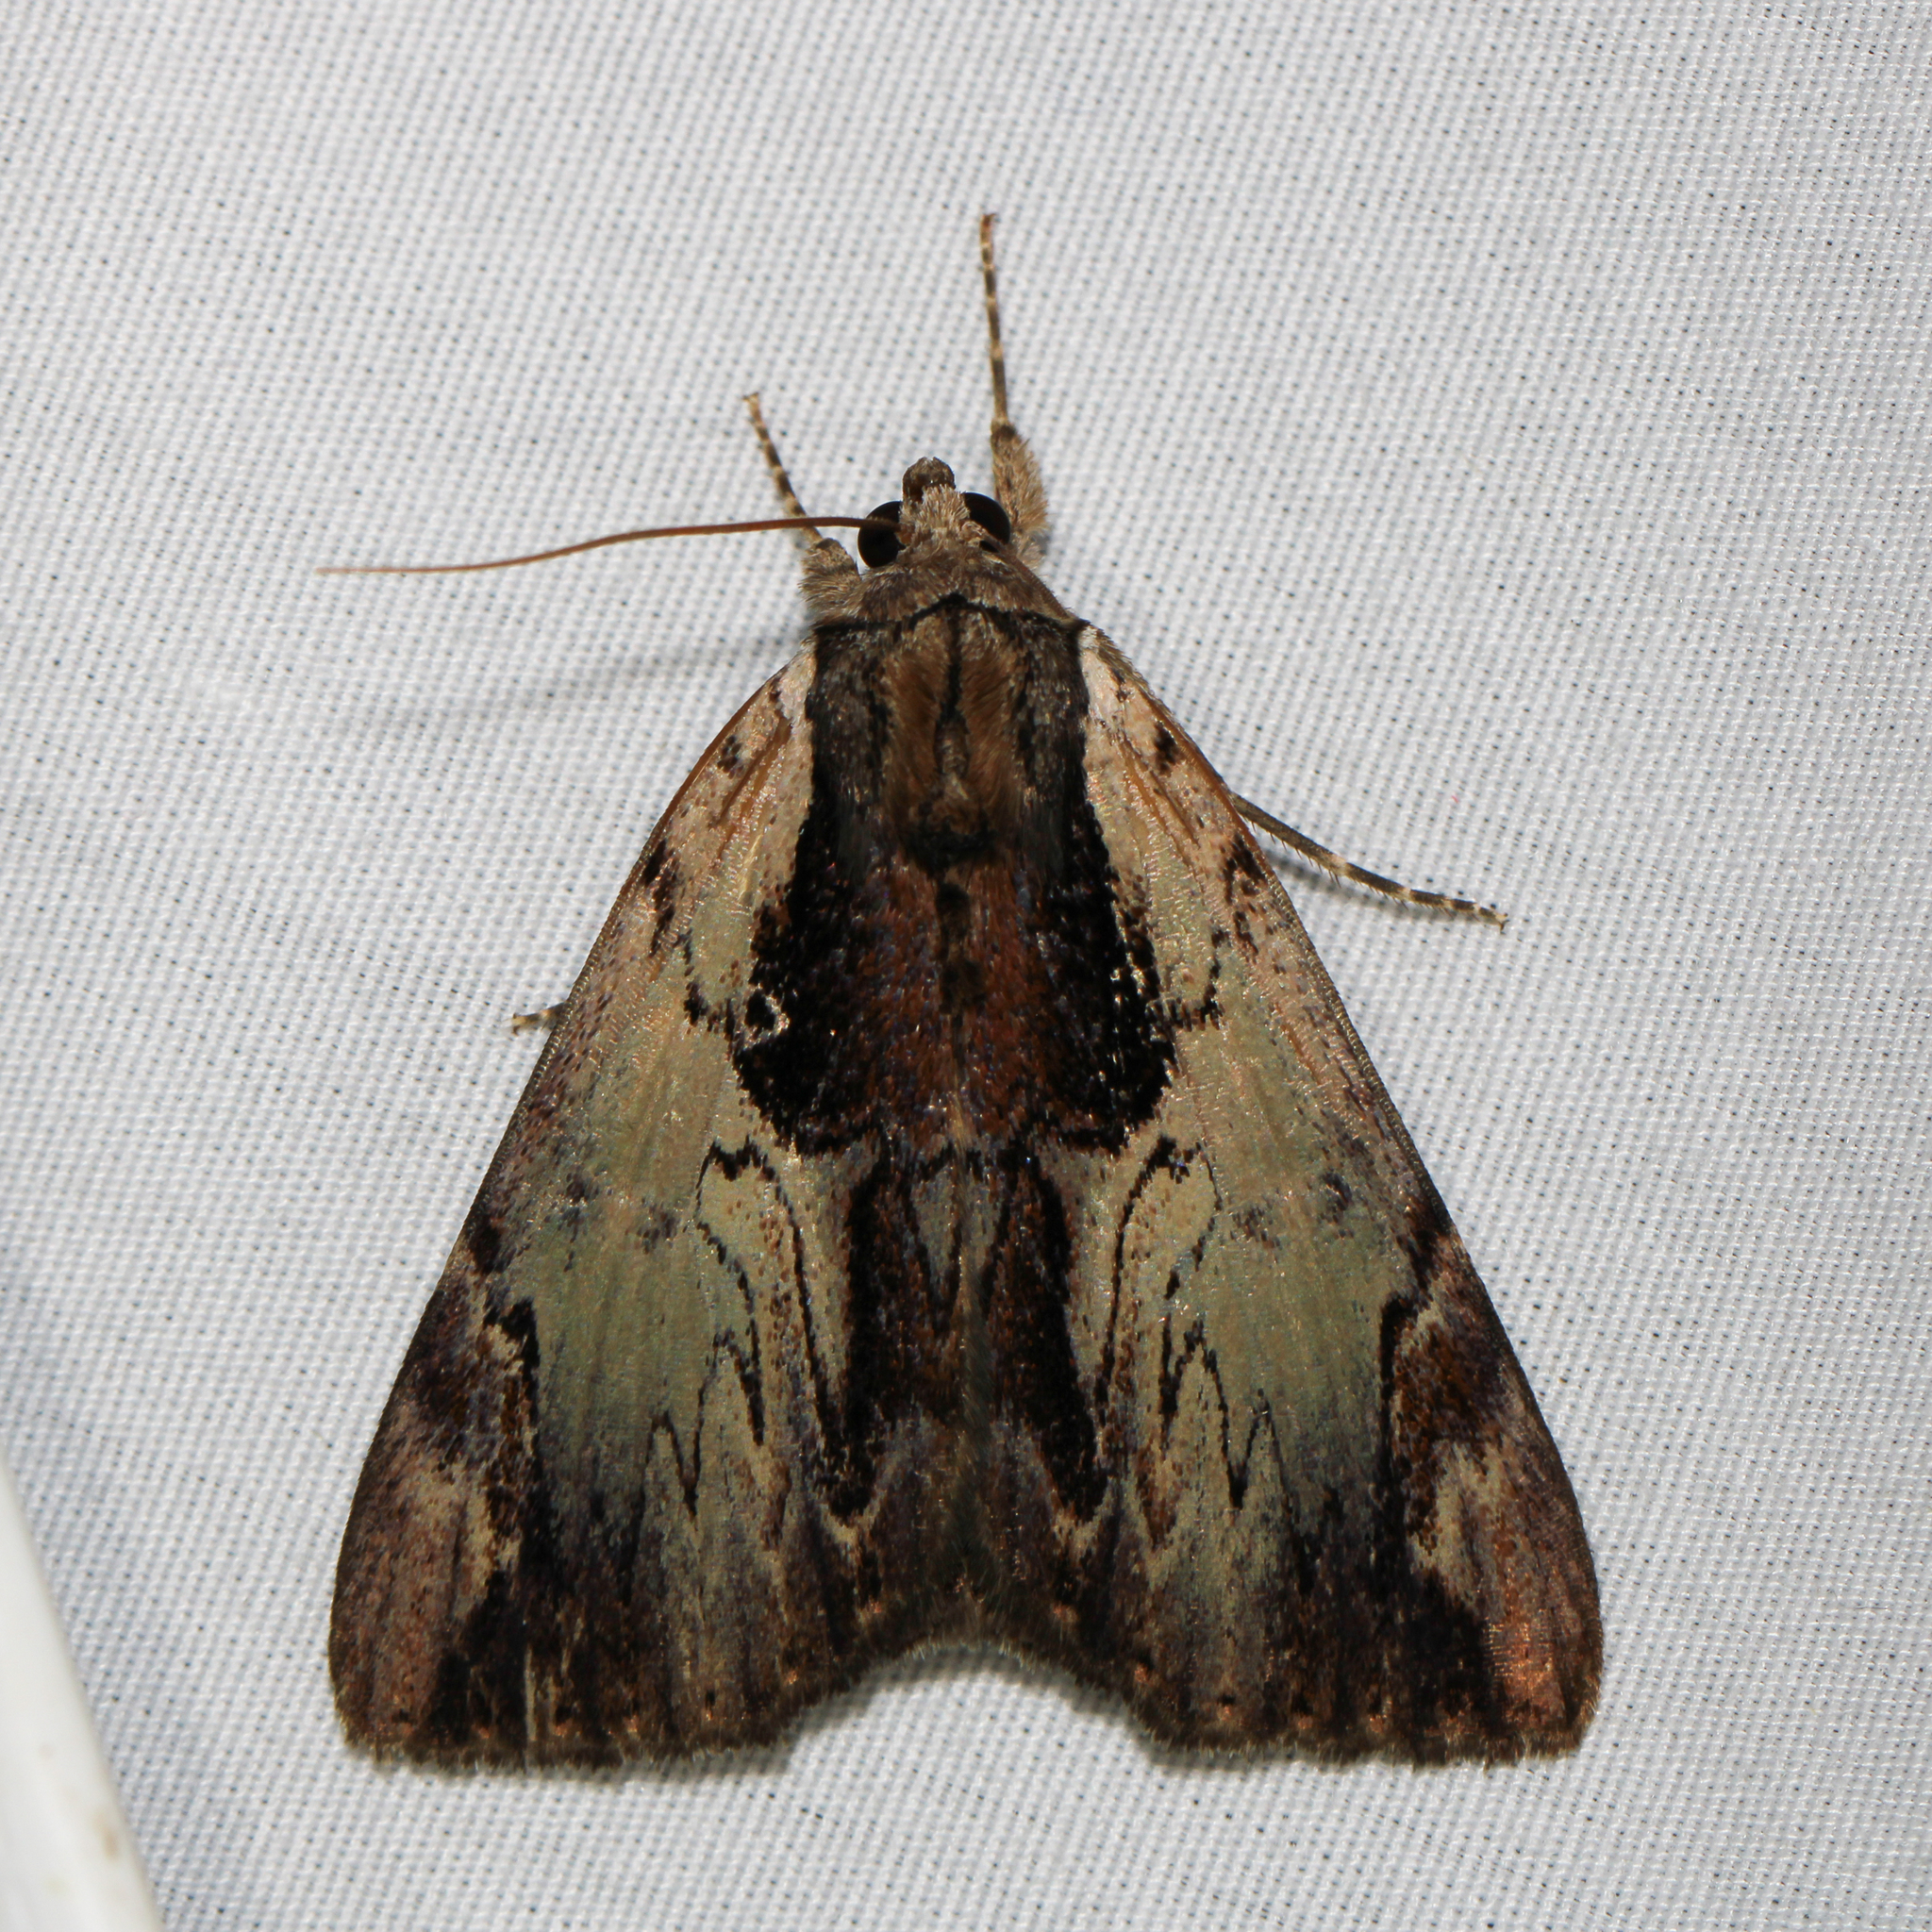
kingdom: Animalia
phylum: Arthropoda
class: Insecta
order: Lepidoptera
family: Erebidae
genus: Catocala
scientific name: Catocala ultronia
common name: Ultronia underwing
